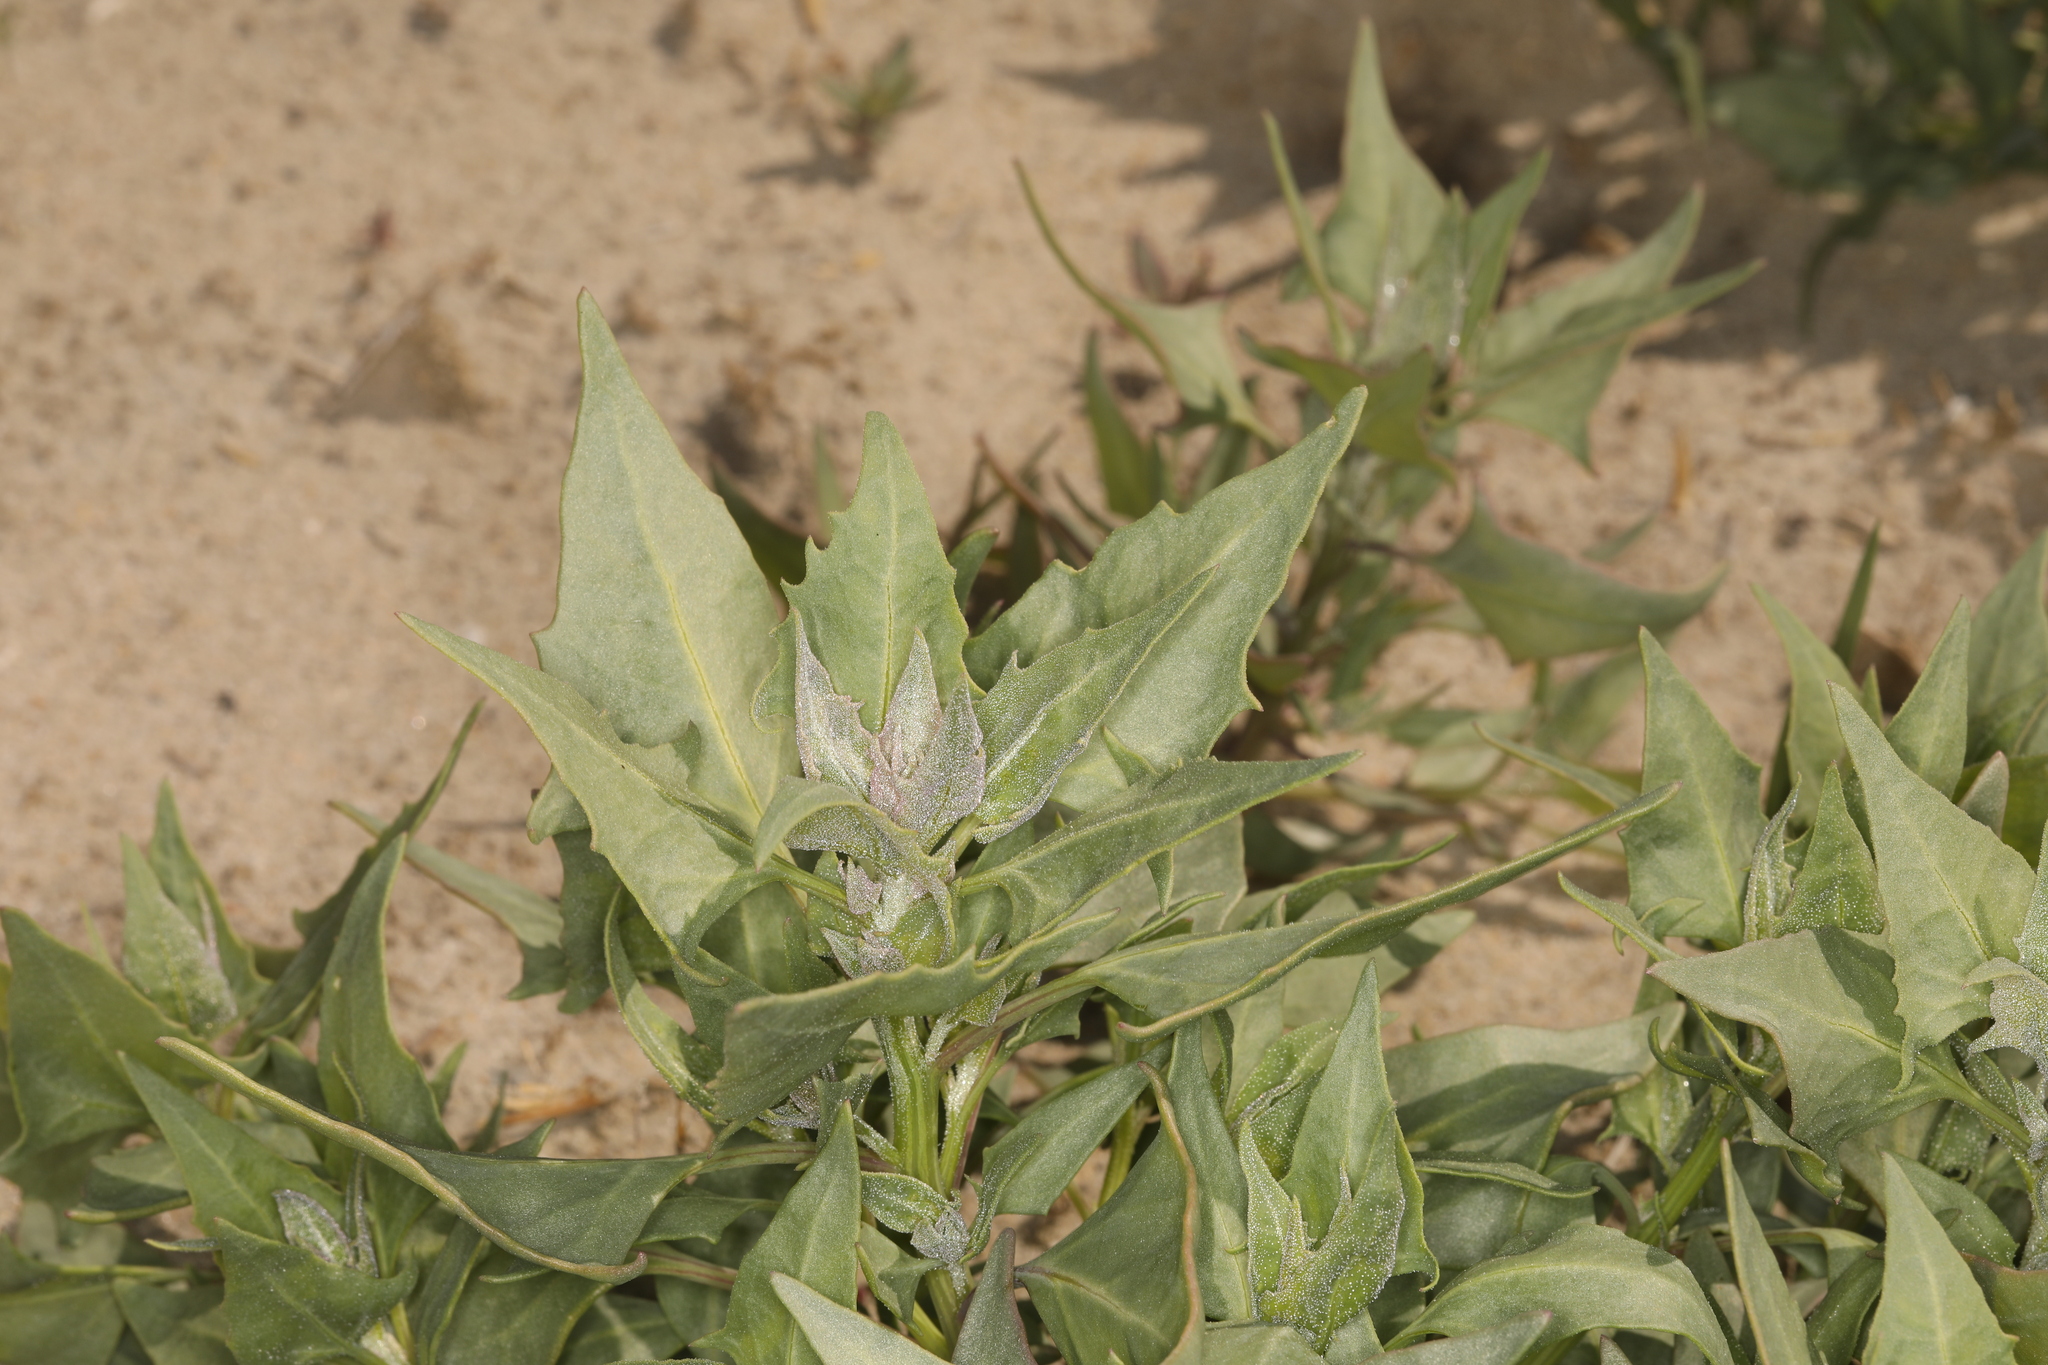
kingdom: Plantae
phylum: Tracheophyta
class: Magnoliopsida
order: Caryophyllales
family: Amaranthaceae
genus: Stutzia
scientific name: Stutzia covillei
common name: Coville's orach
